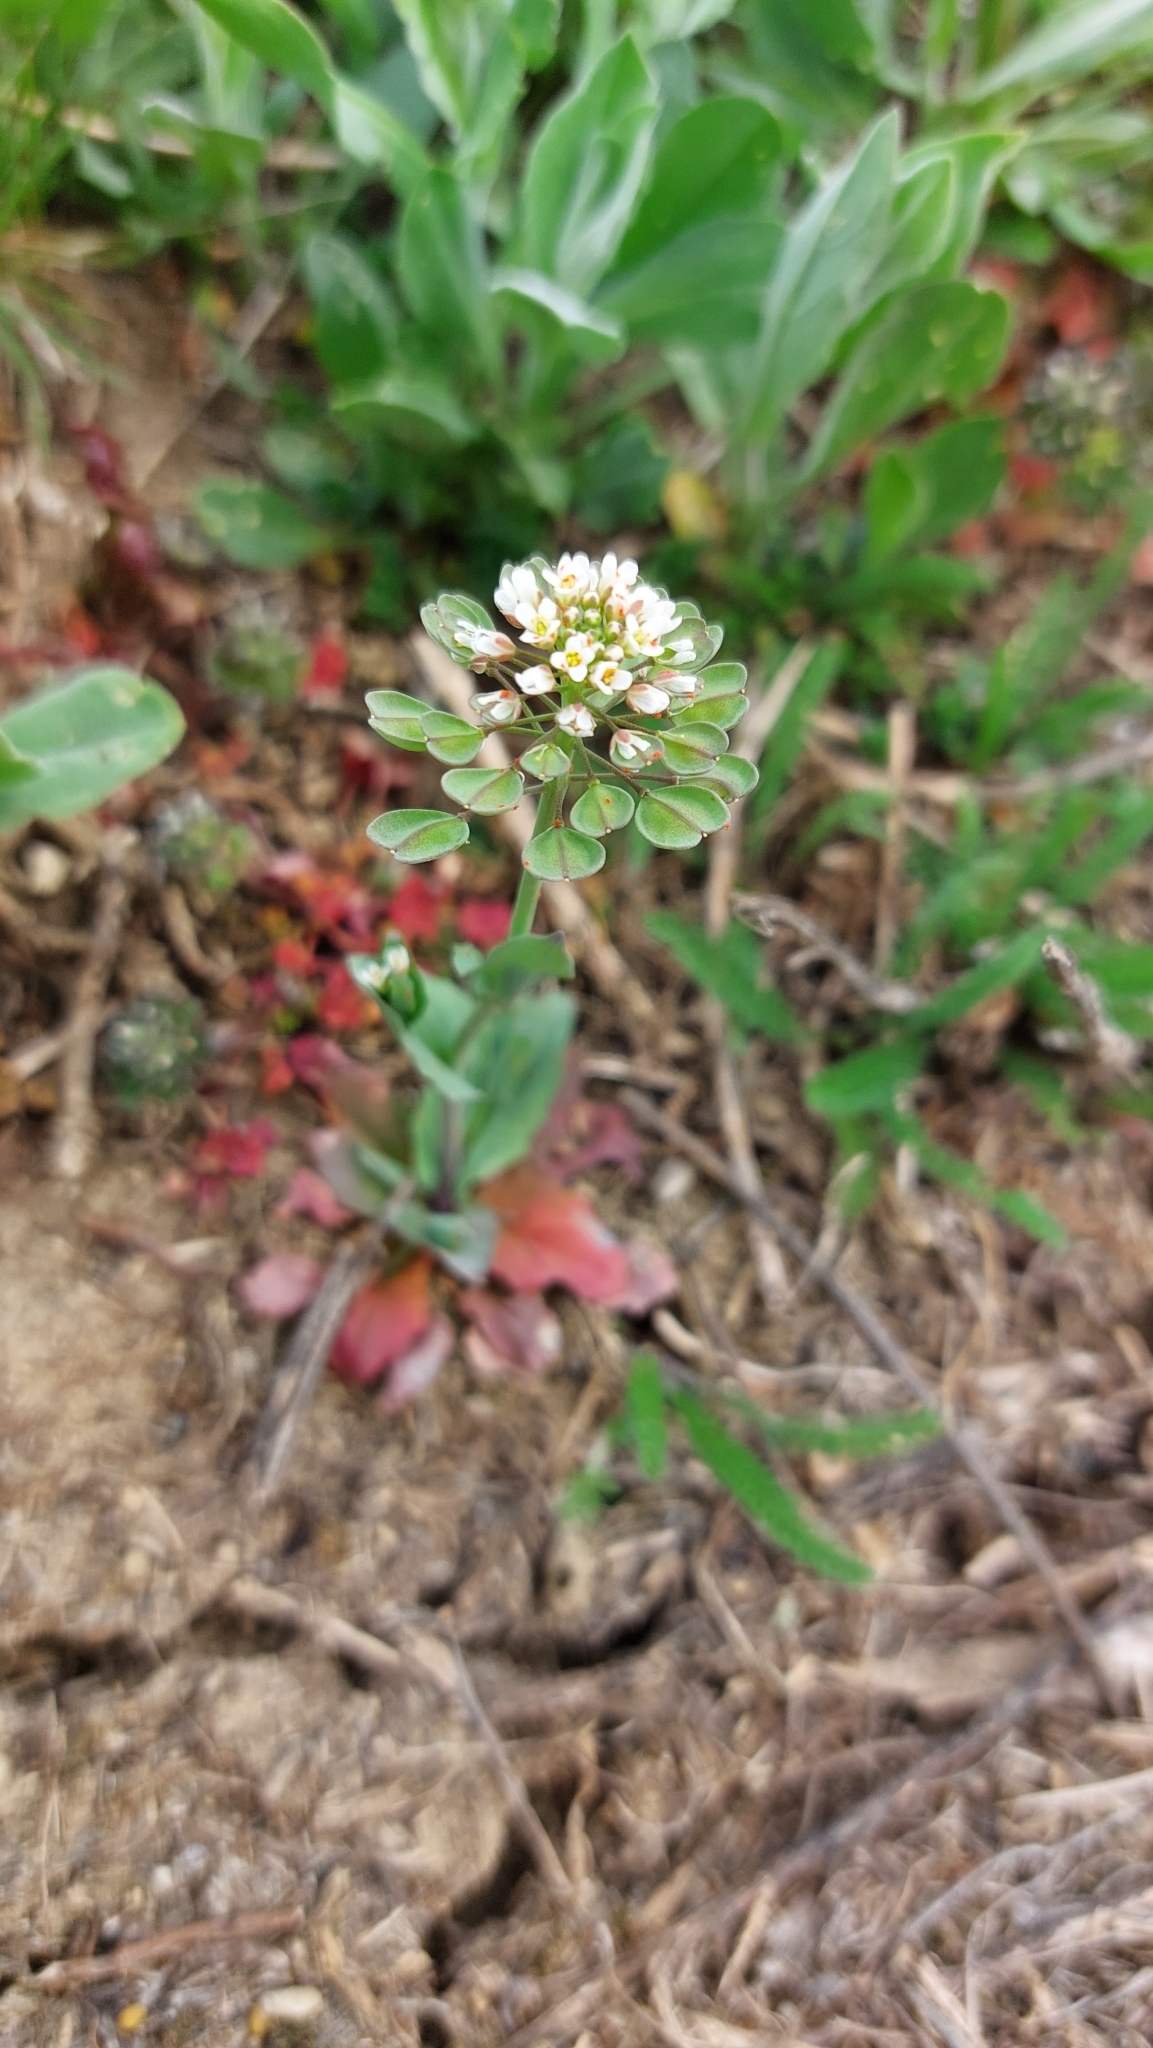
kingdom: Plantae
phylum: Tracheophyta
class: Magnoliopsida
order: Brassicales
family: Brassicaceae
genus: Noccaea
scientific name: Noccaea perfoliata
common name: Perfoliate pennycress
